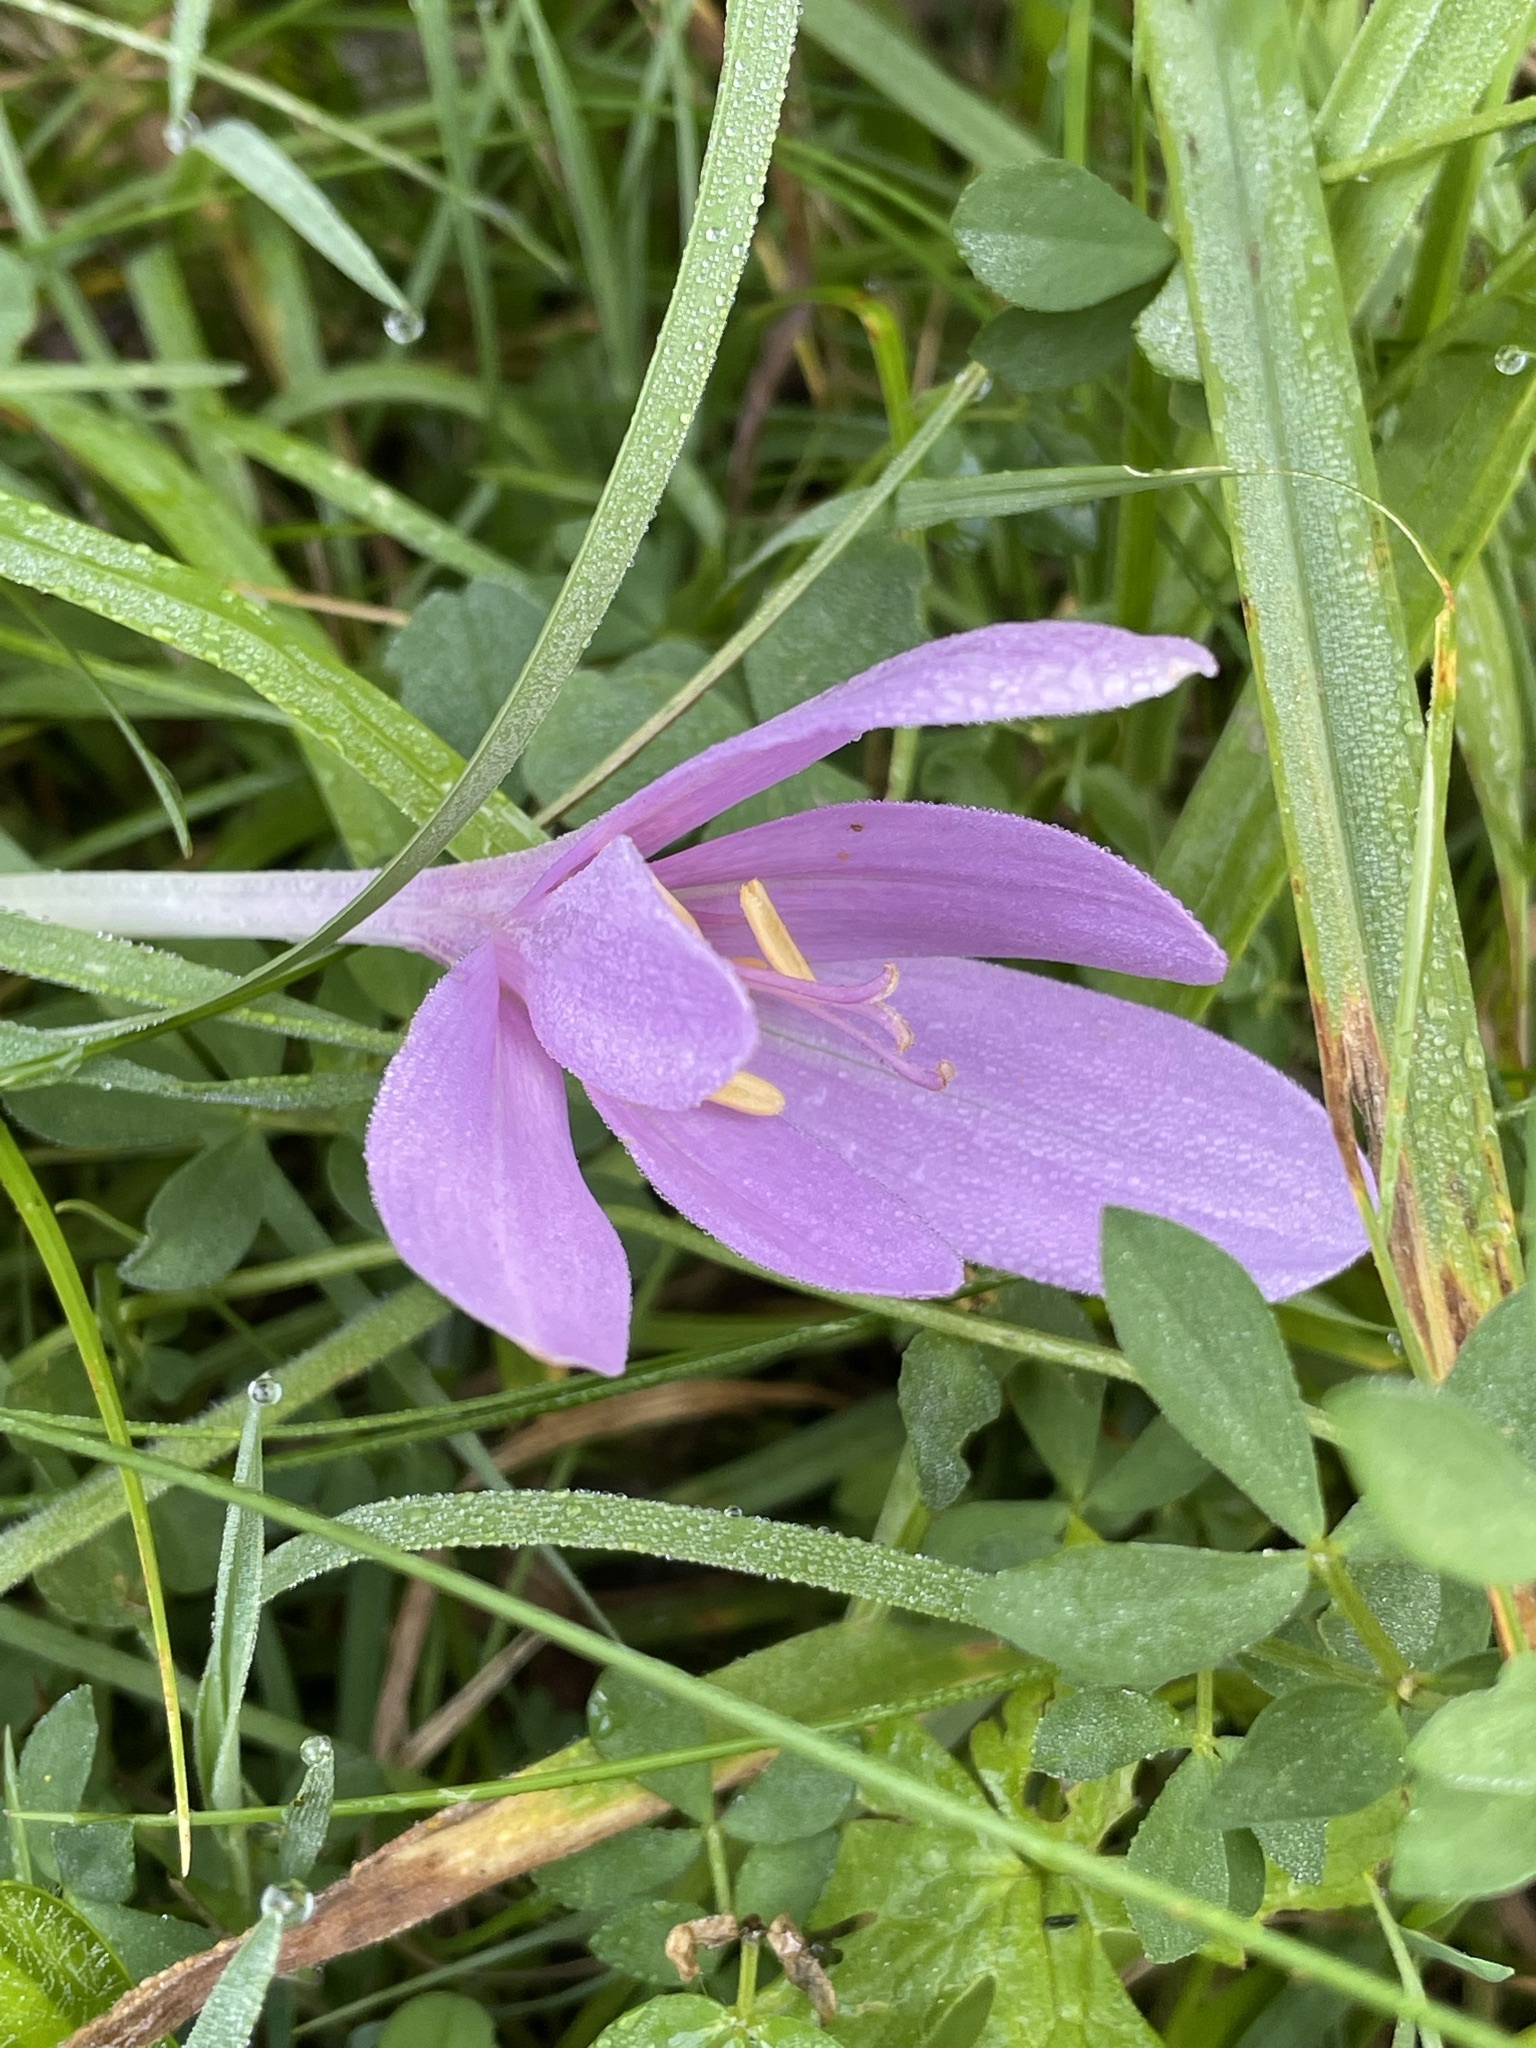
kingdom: Plantae
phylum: Tracheophyta
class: Liliopsida
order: Liliales
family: Colchicaceae
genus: Colchicum
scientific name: Colchicum autumnale
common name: Autumn crocus
